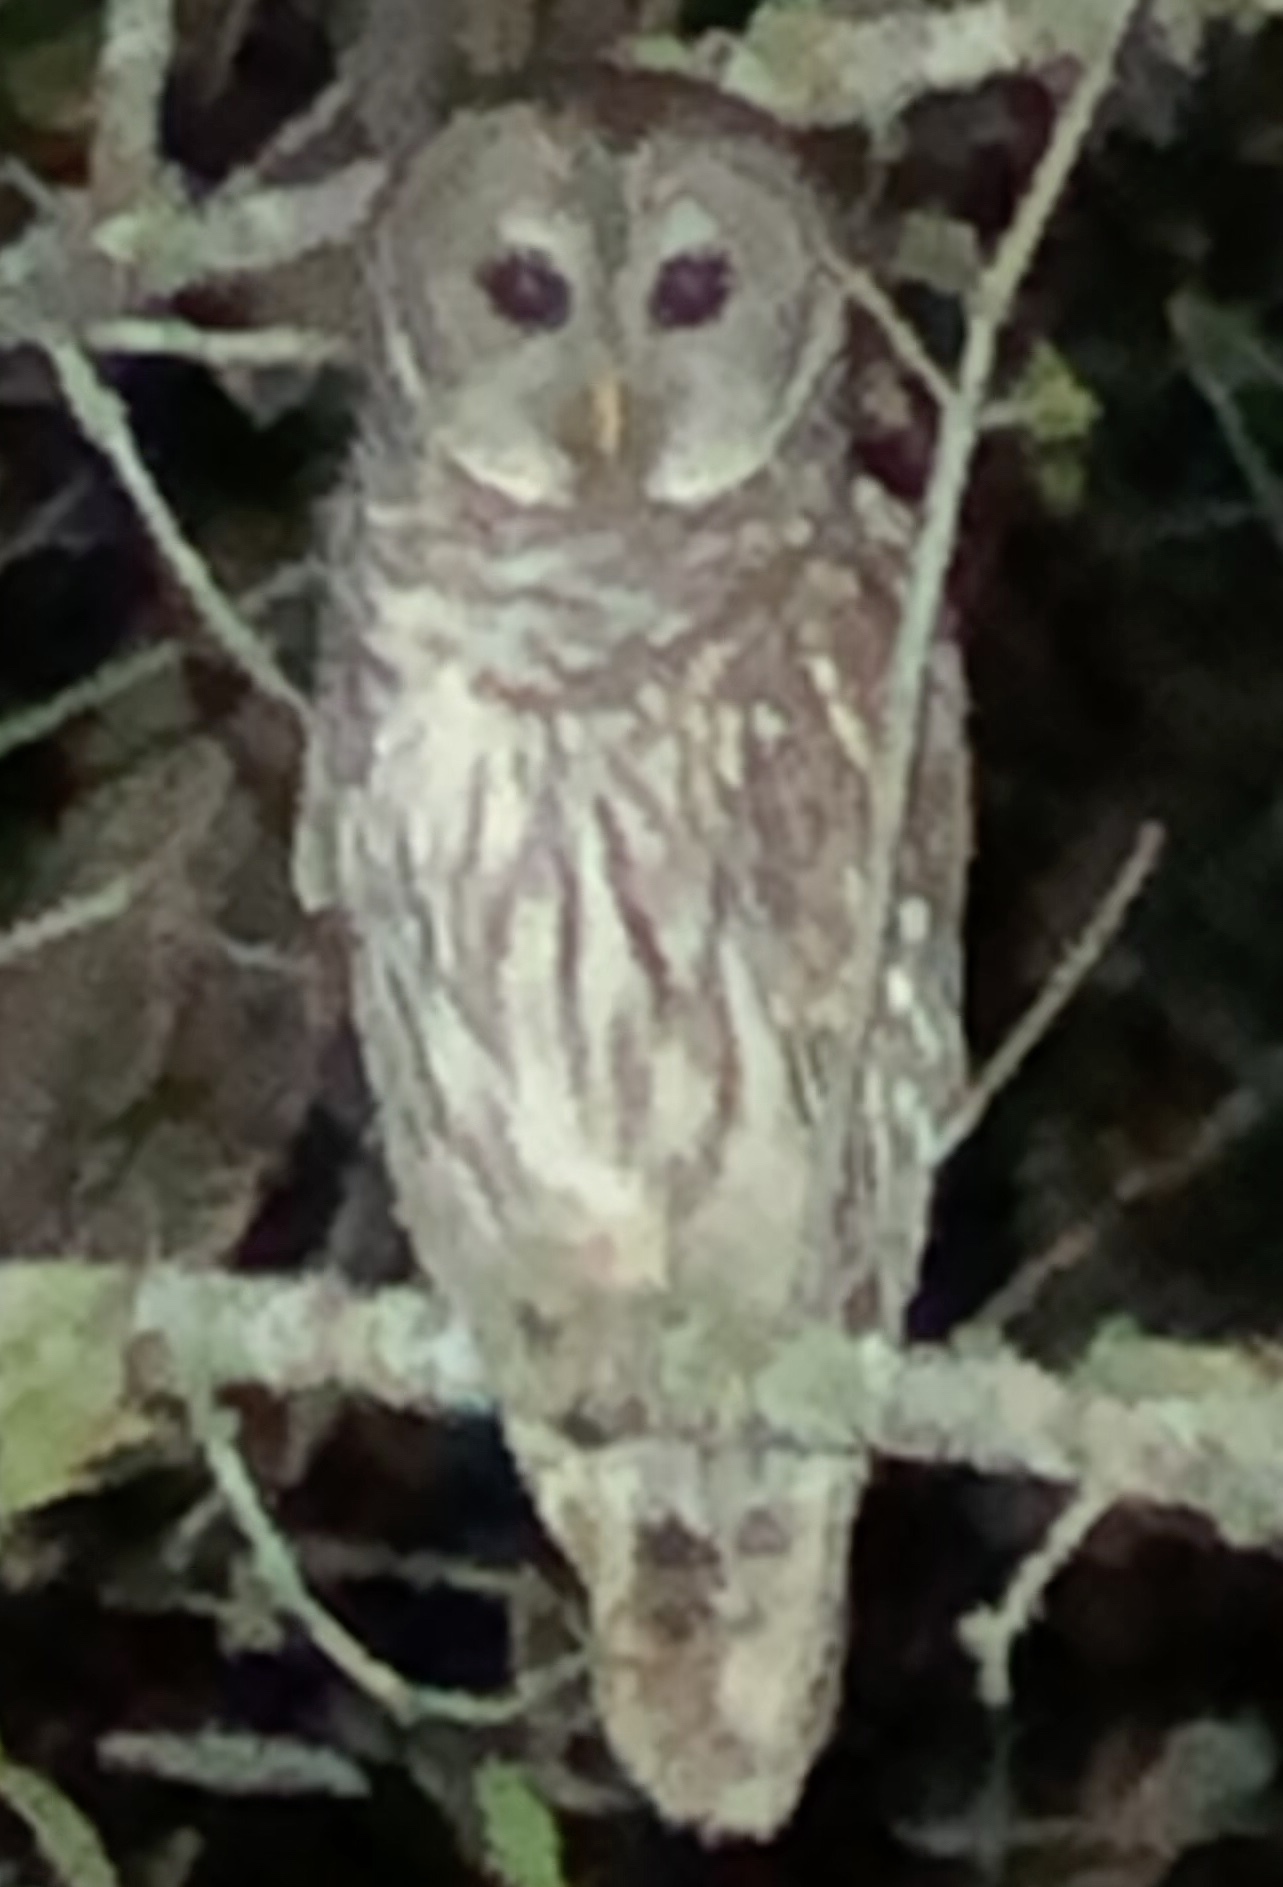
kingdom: Animalia
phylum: Chordata
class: Aves
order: Strigiformes
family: Strigidae
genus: Strix
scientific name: Strix varia
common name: Barred owl
